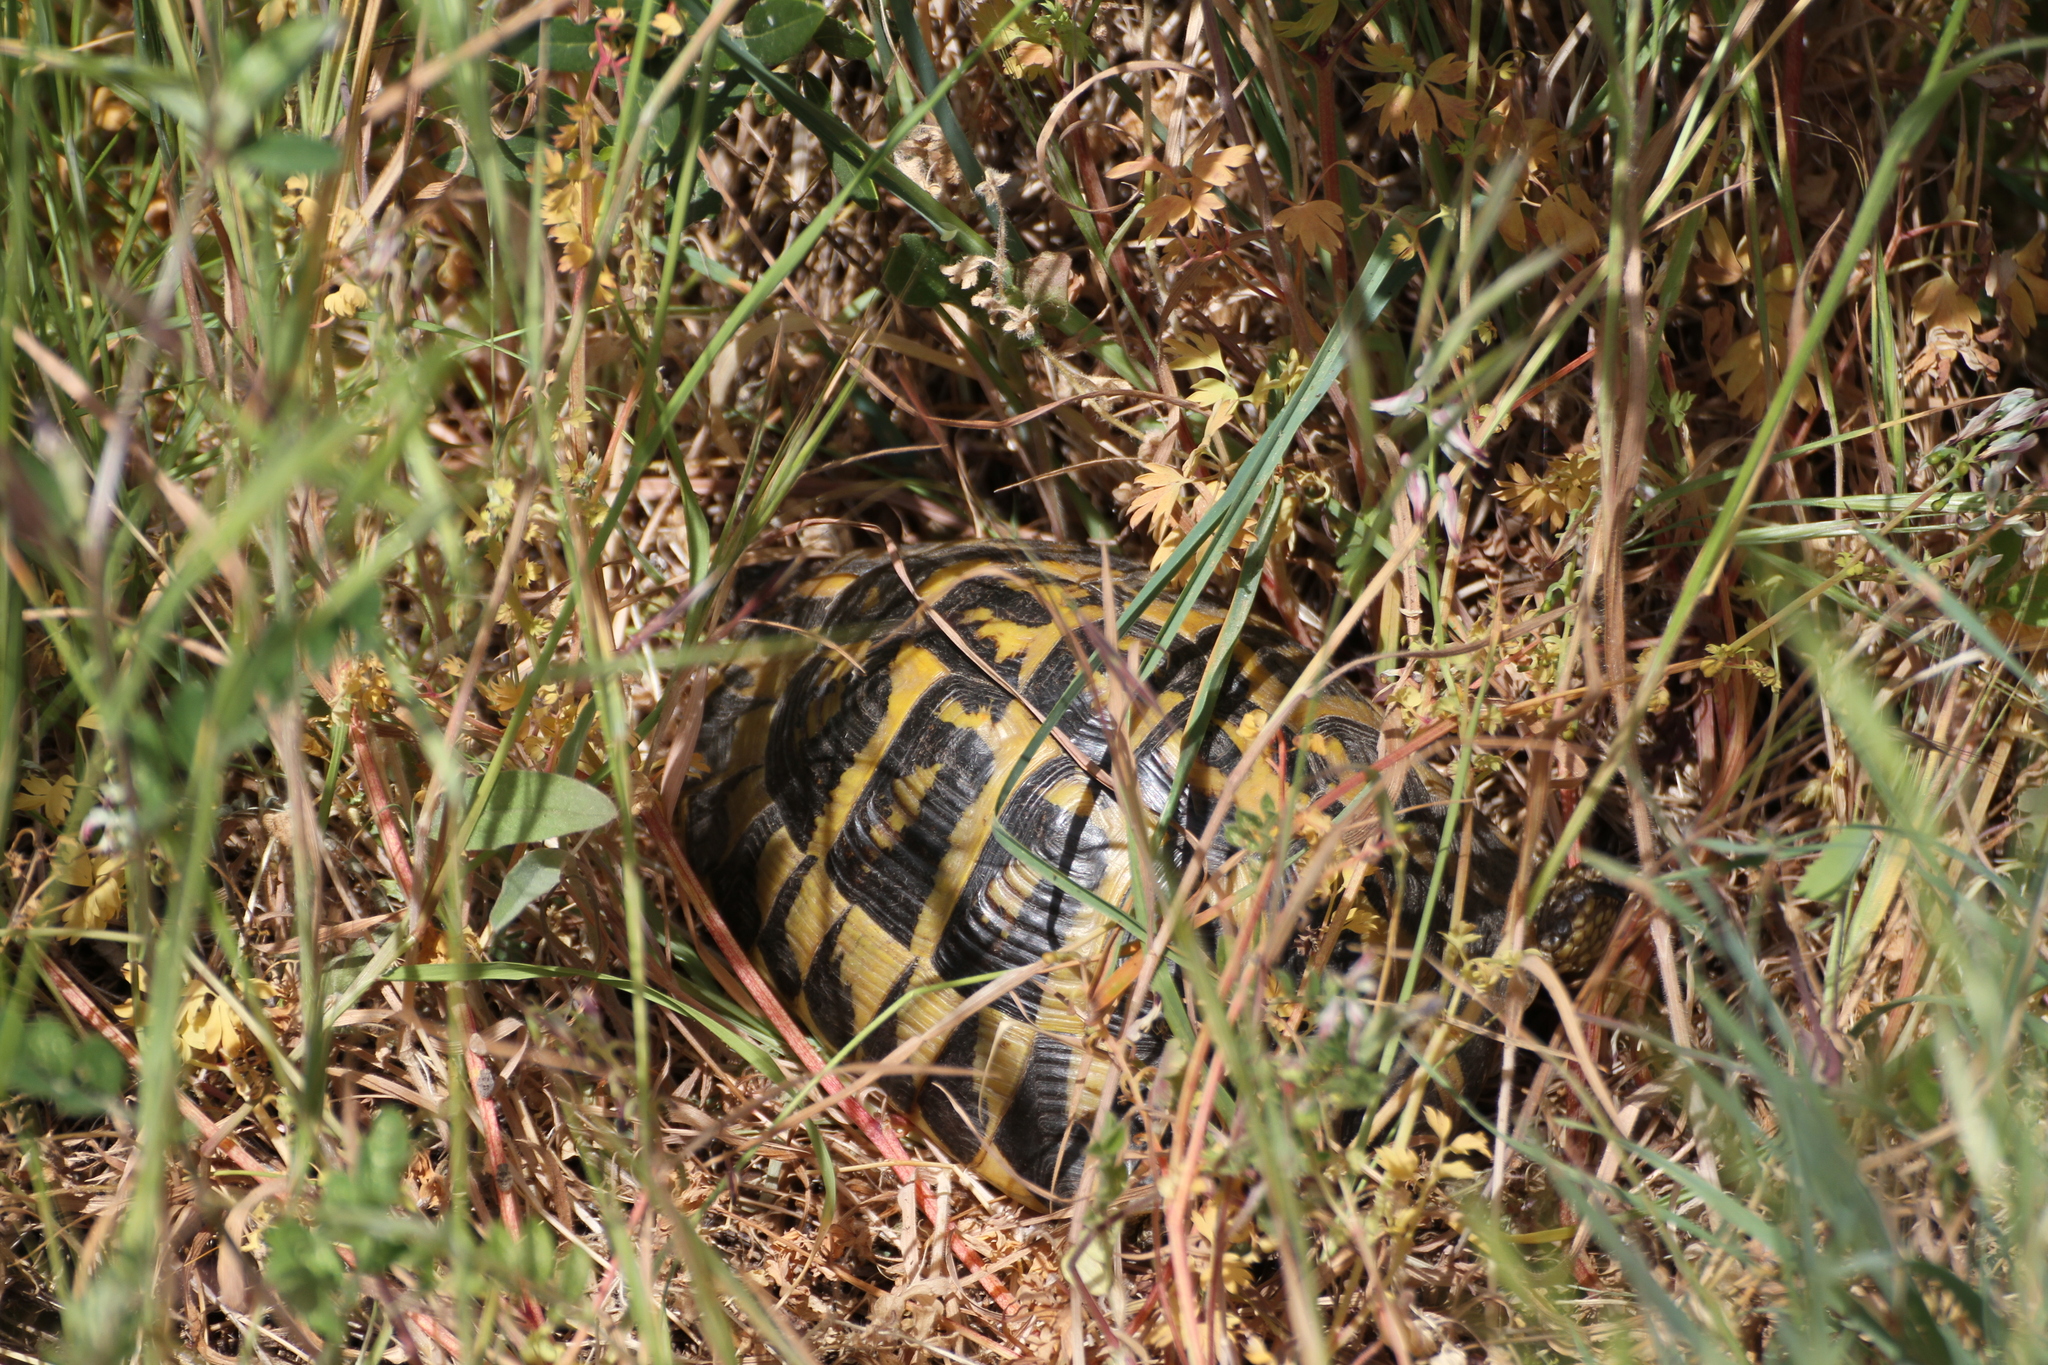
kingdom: Animalia
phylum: Chordata
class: Testudines
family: Testudinidae
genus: Testudo
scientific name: Testudo hermanni
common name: Hermann's tortoise
